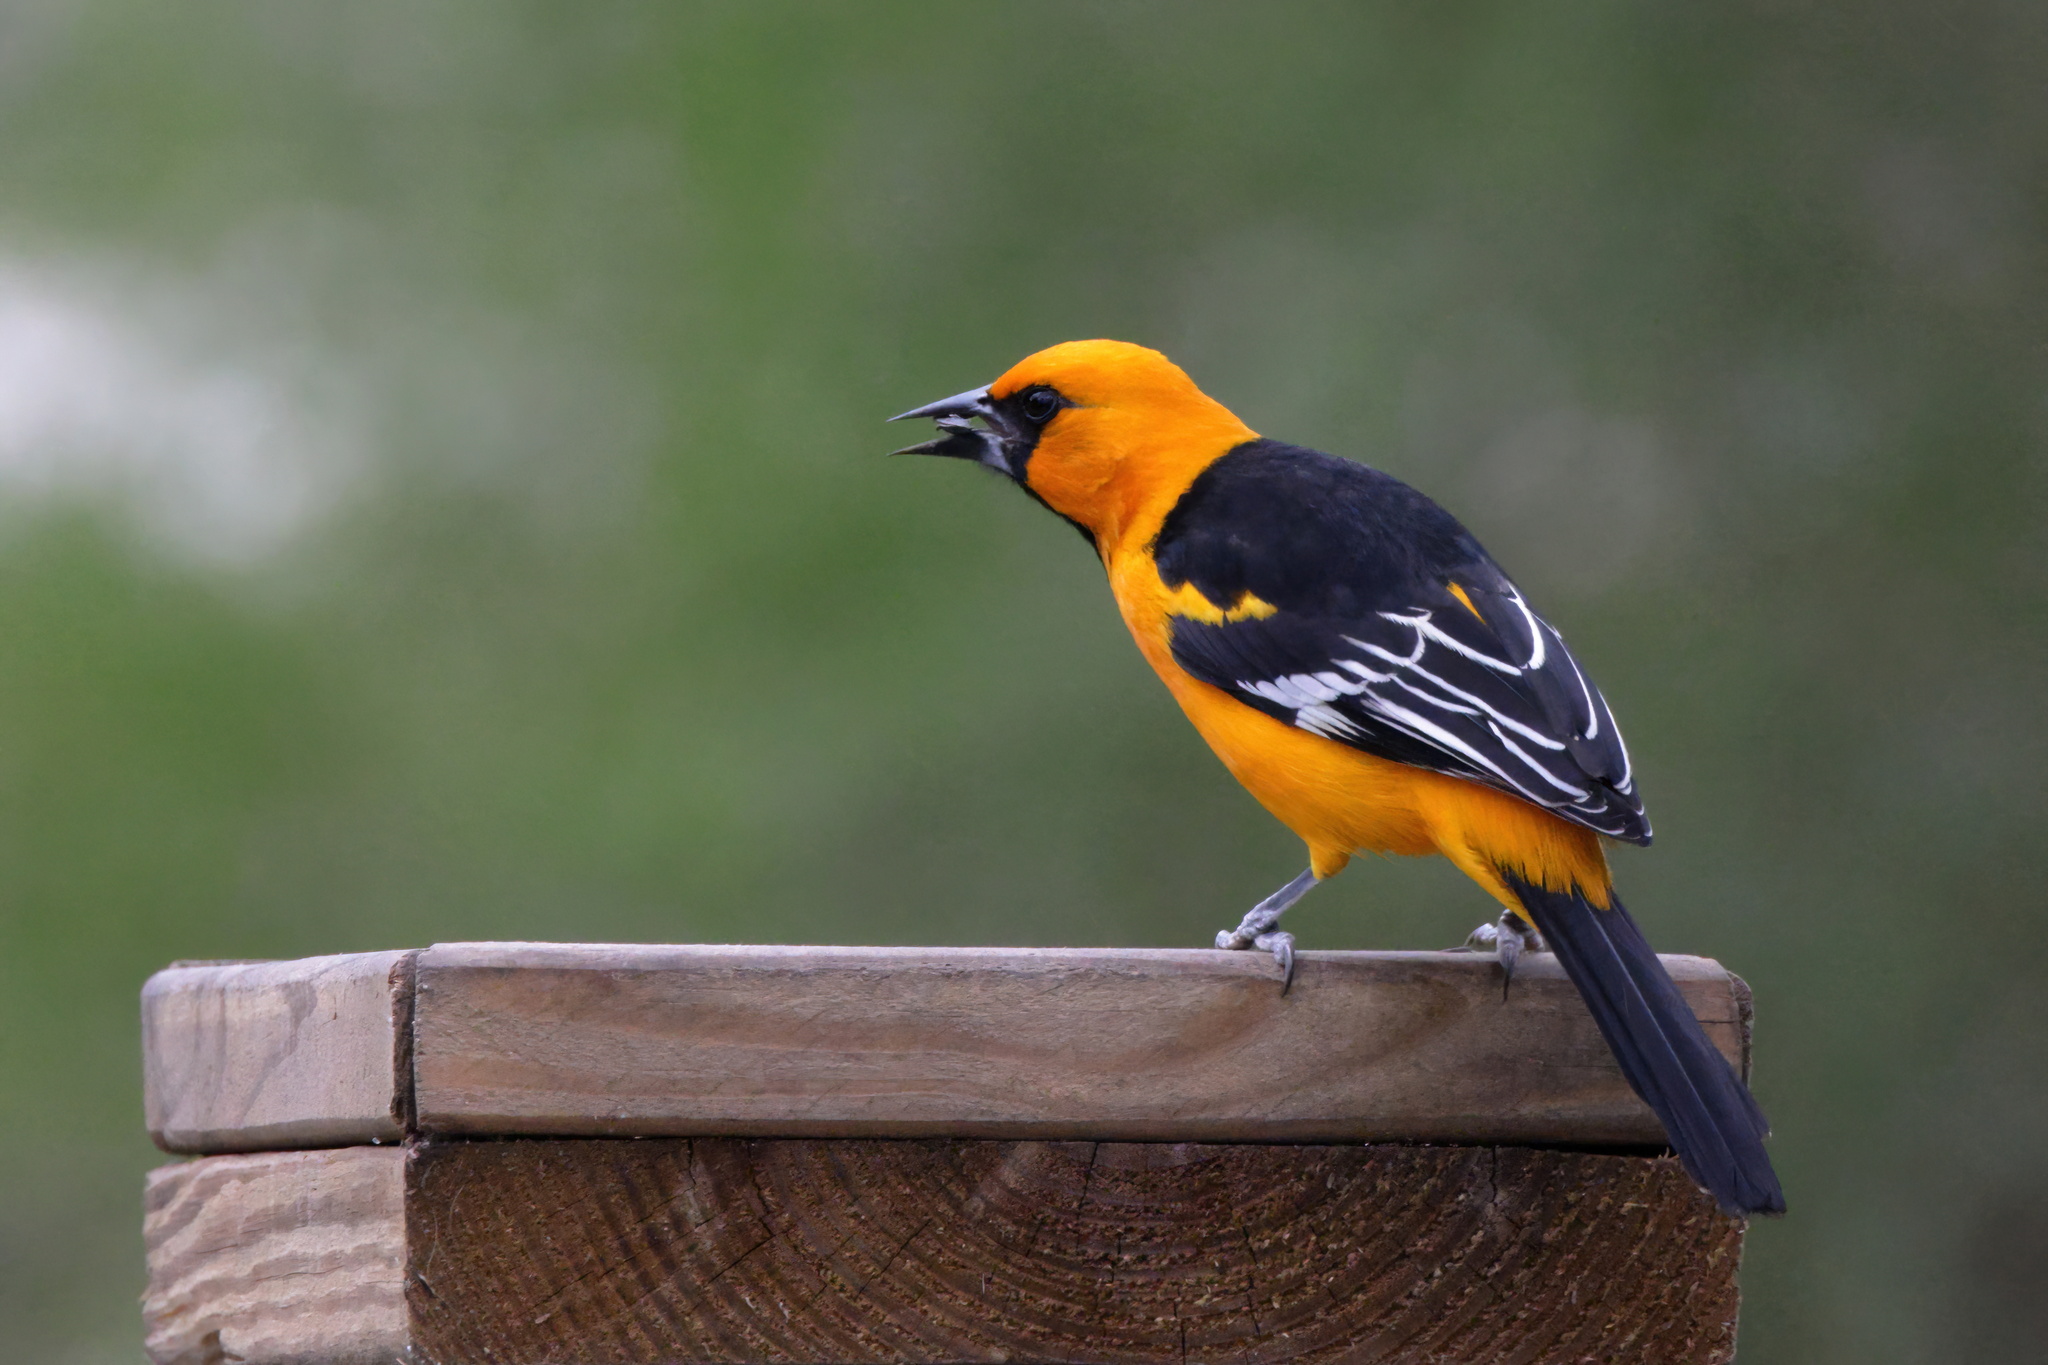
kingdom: Animalia
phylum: Chordata
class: Aves
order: Passeriformes
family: Icteridae
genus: Icterus
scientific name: Icterus gularis
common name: Altamira oriole
